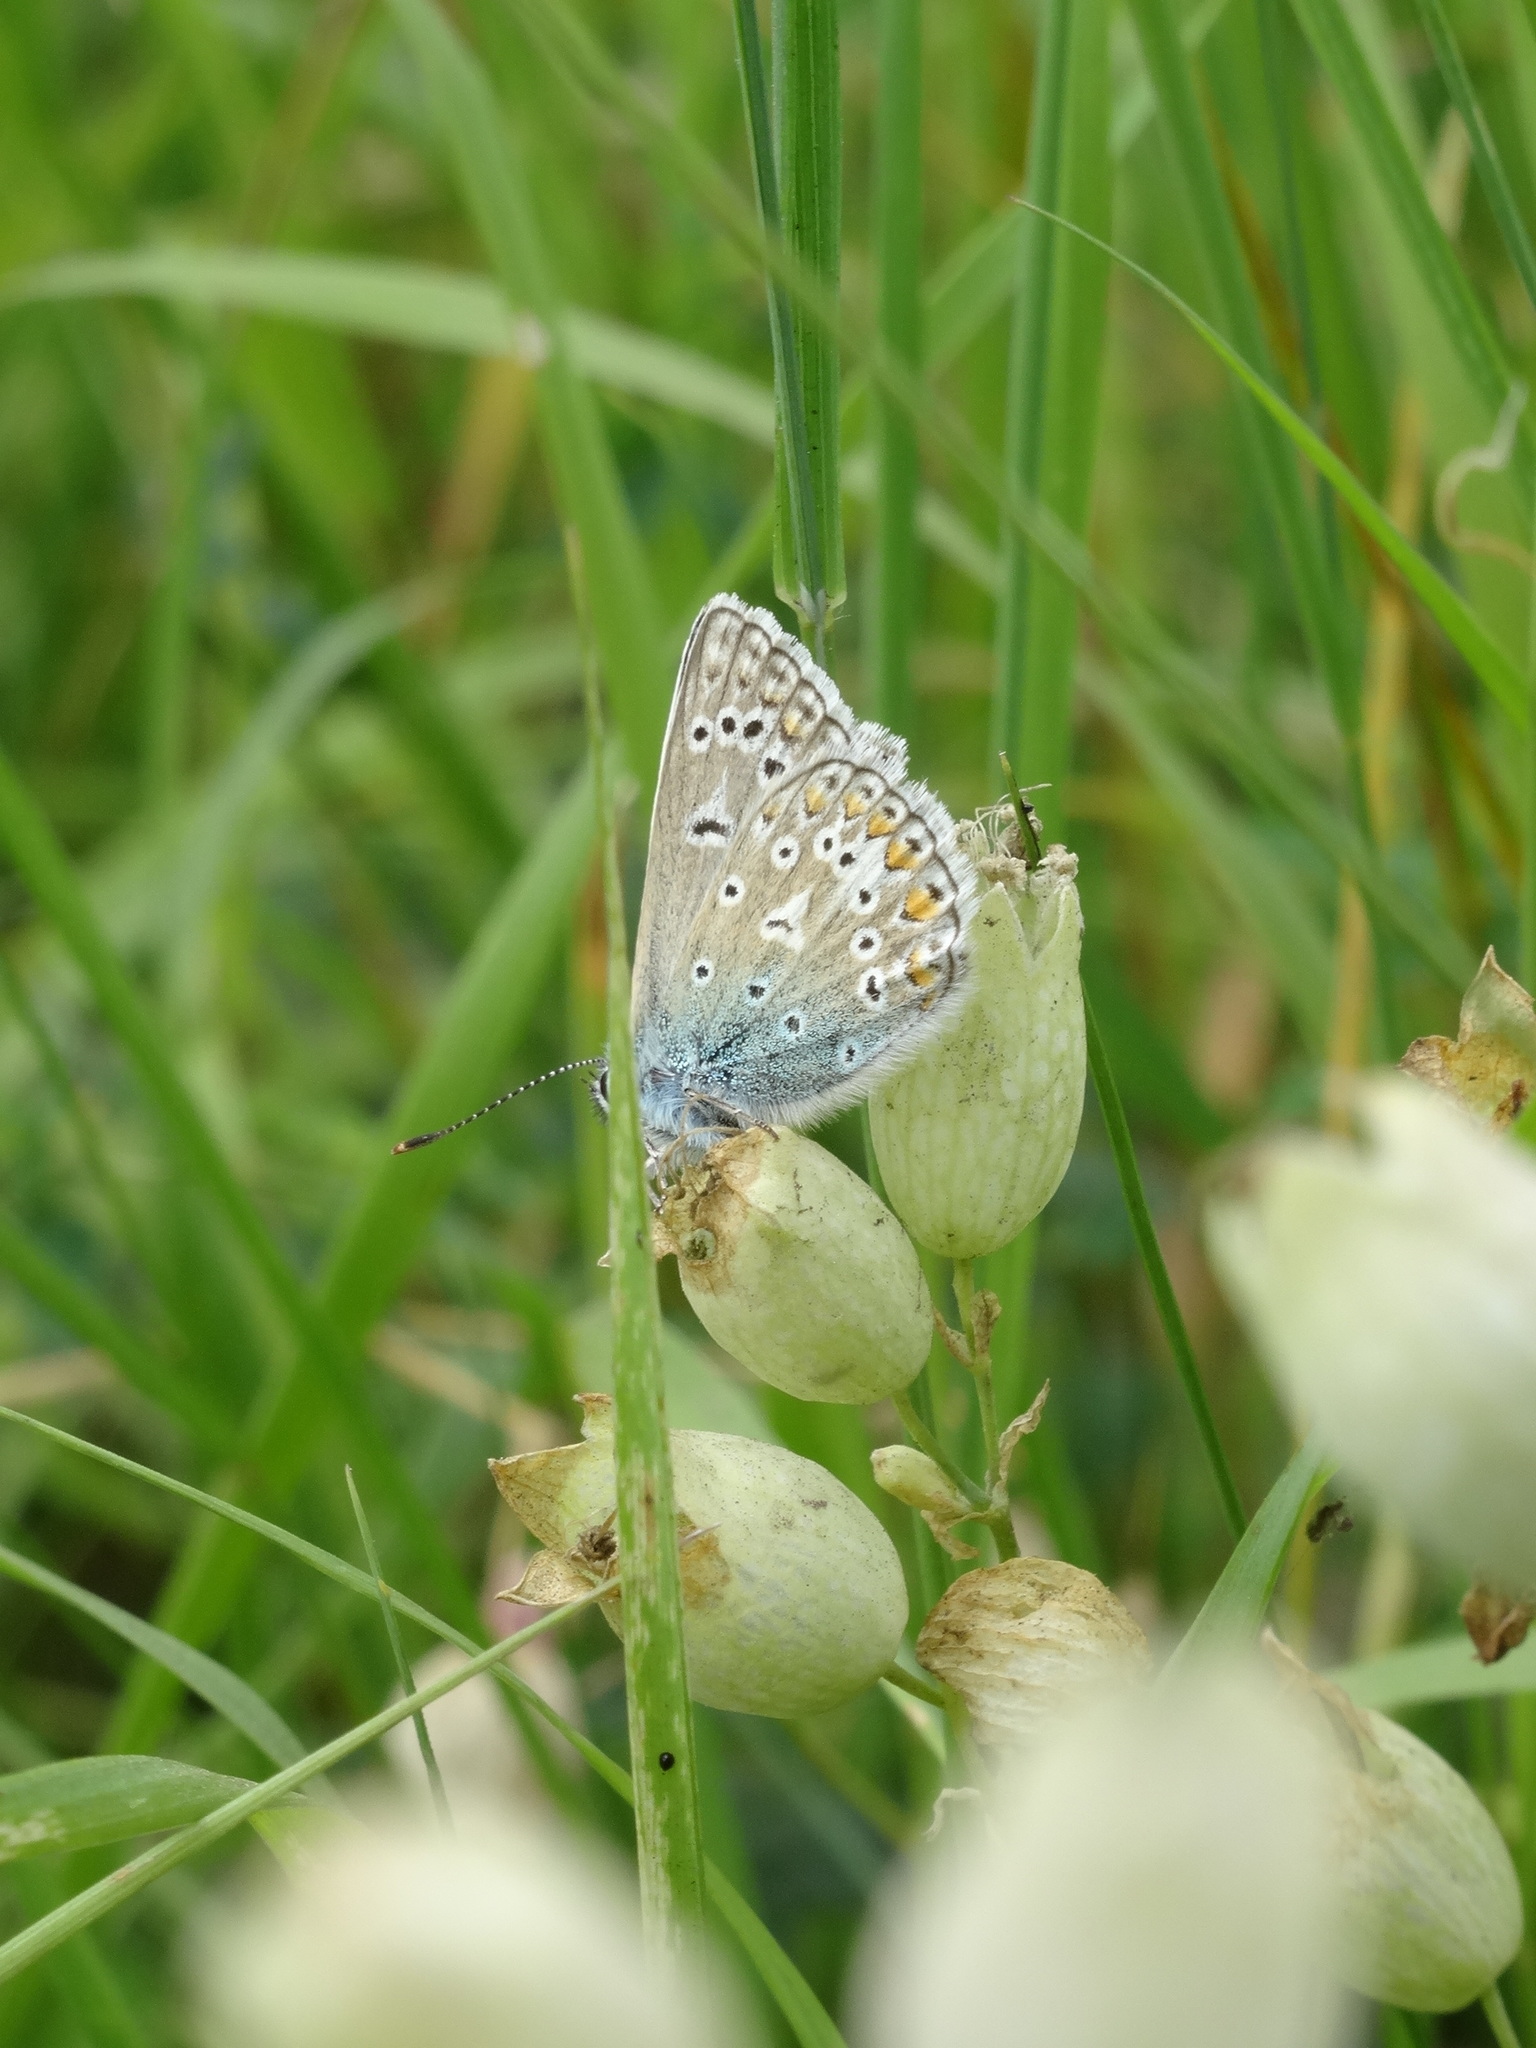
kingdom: Animalia
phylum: Arthropoda
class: Insecta
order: Lepidoptera
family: Lycaenidae
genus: Polyommatus
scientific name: Polyommatus icarus
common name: Common blue
